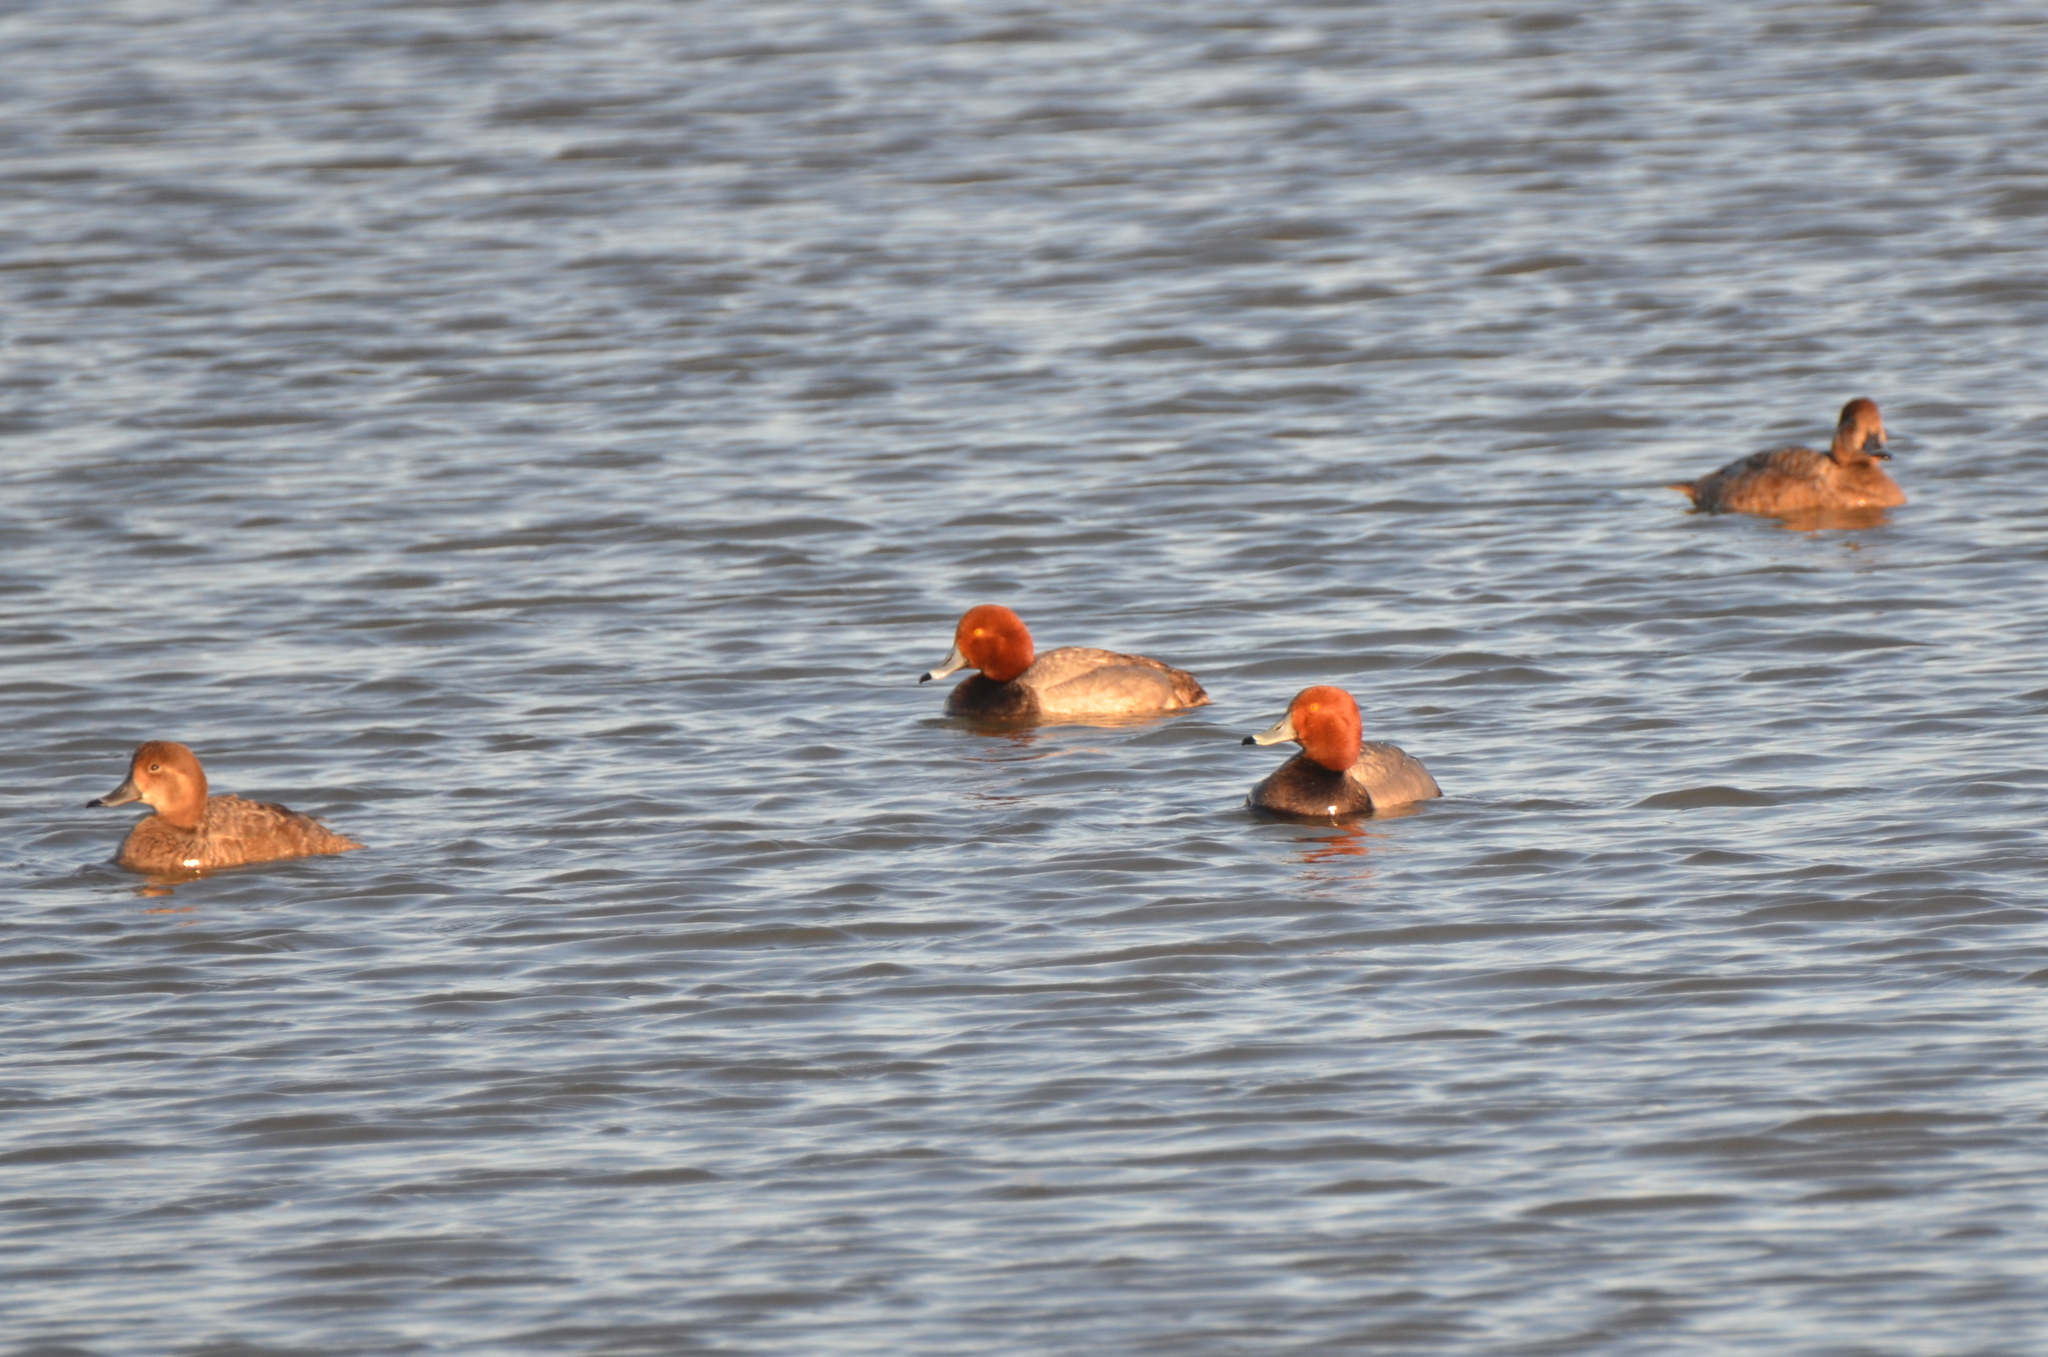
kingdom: Animalia
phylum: Chordata
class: Aves
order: Anseriformes
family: Anatidae
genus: Aythya
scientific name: Aythya americana
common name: Redhead
